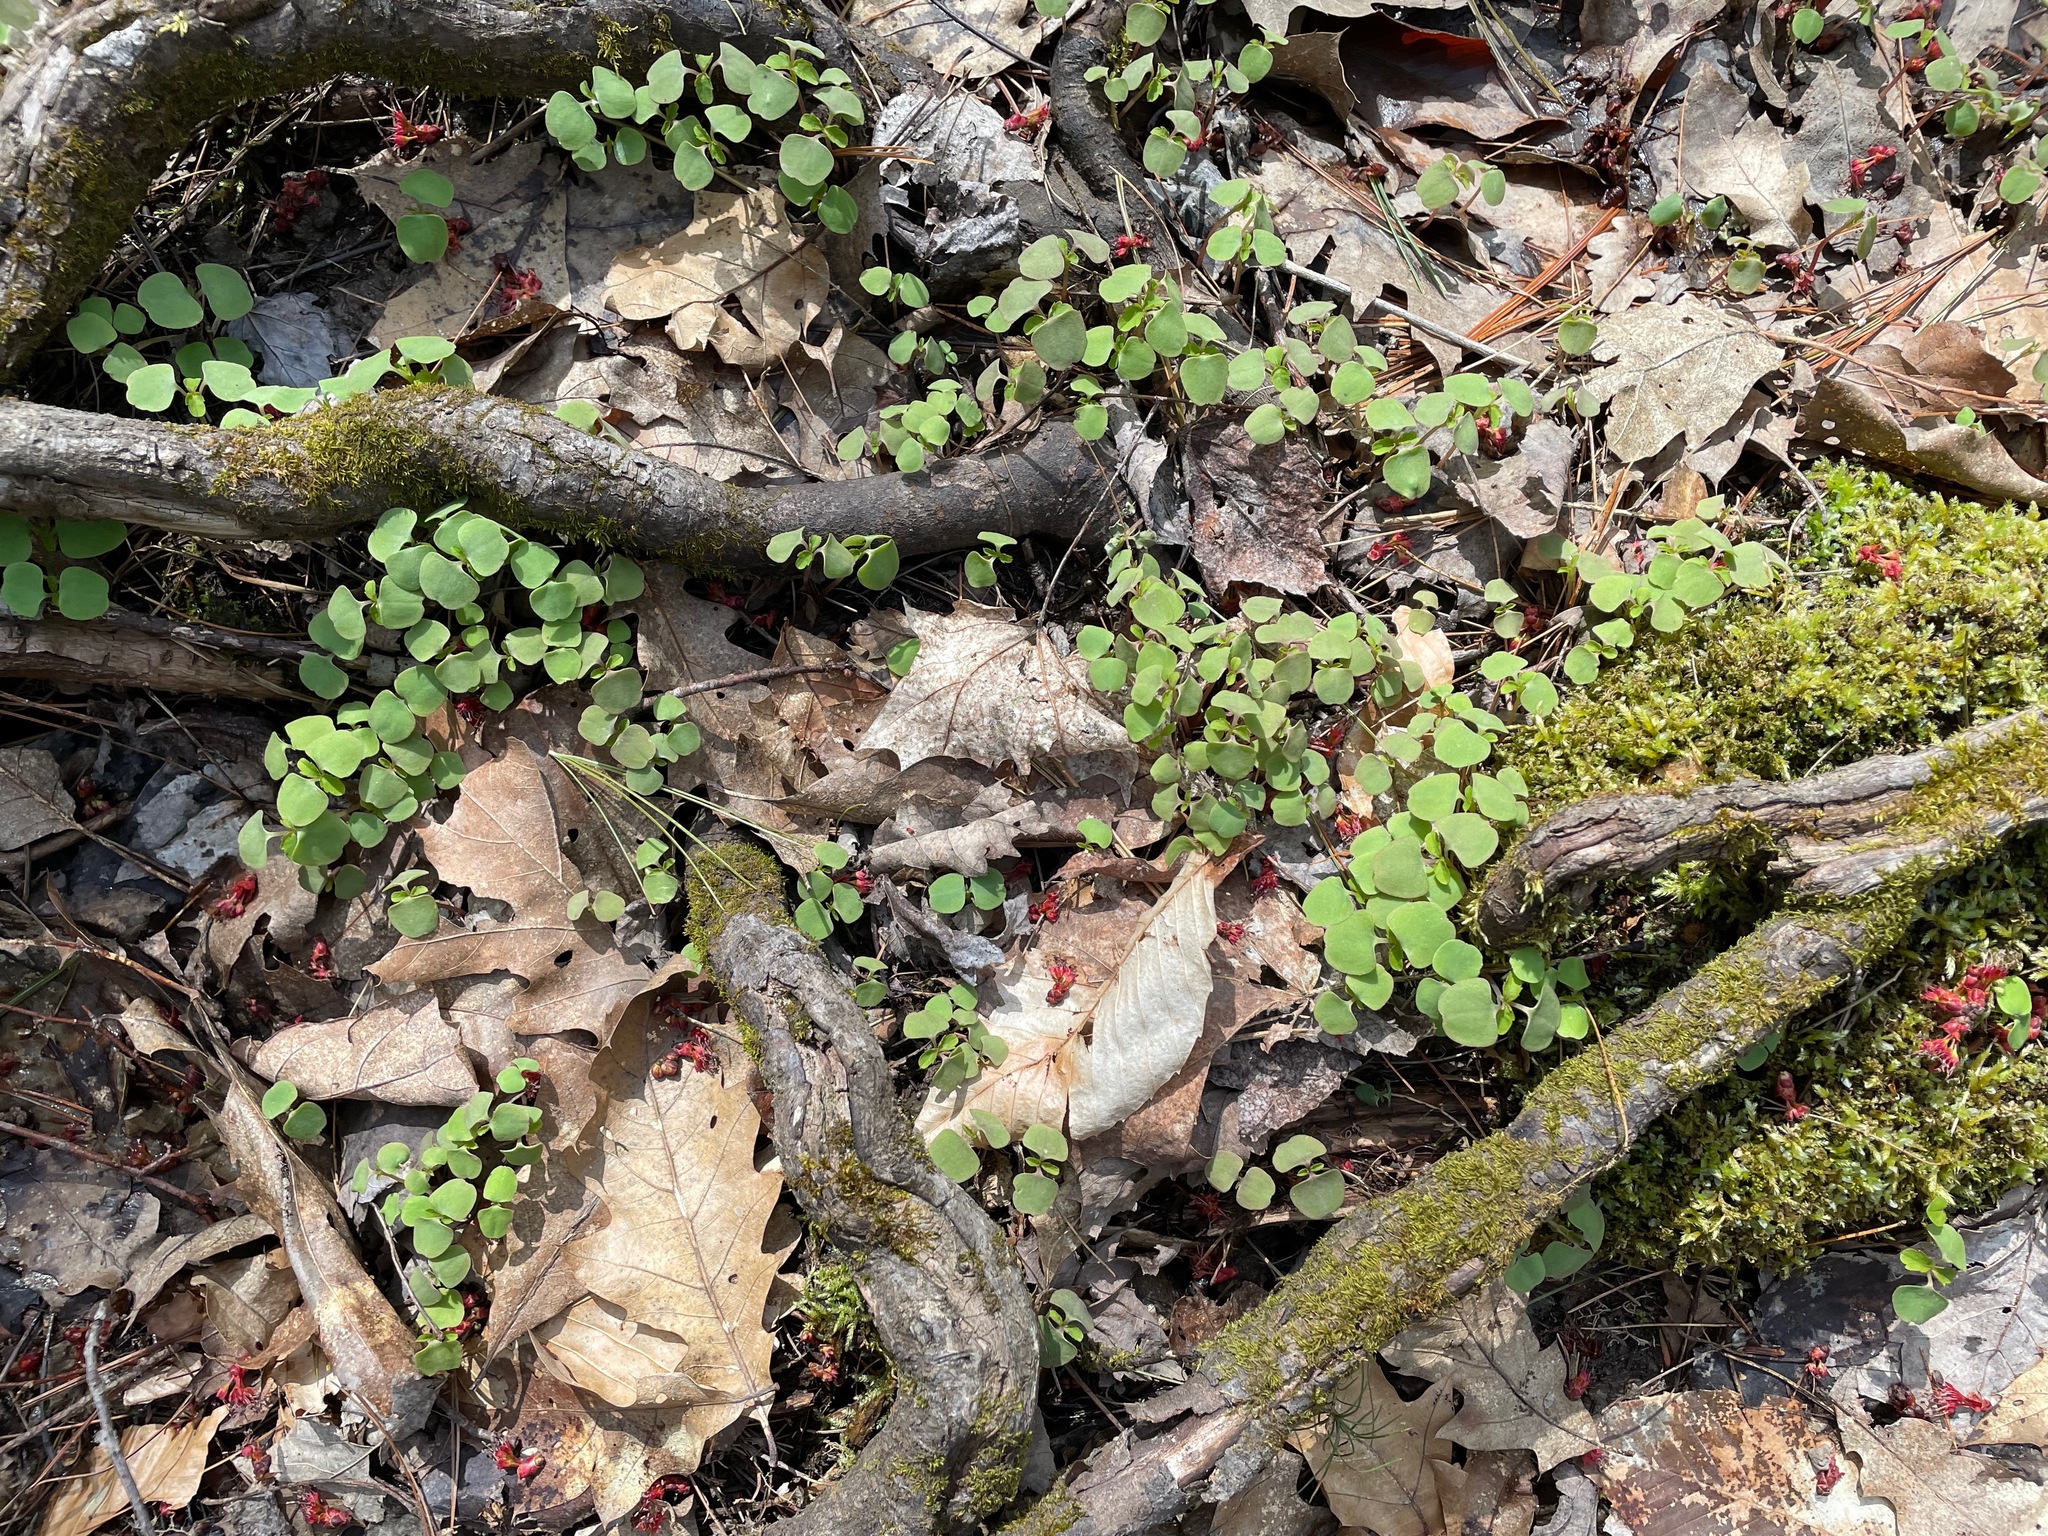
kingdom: Plantae
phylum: Tracheophyta
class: Magnoliopsida
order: Ericales
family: Balsaminaceae
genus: Impatiens
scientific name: Impatiens
